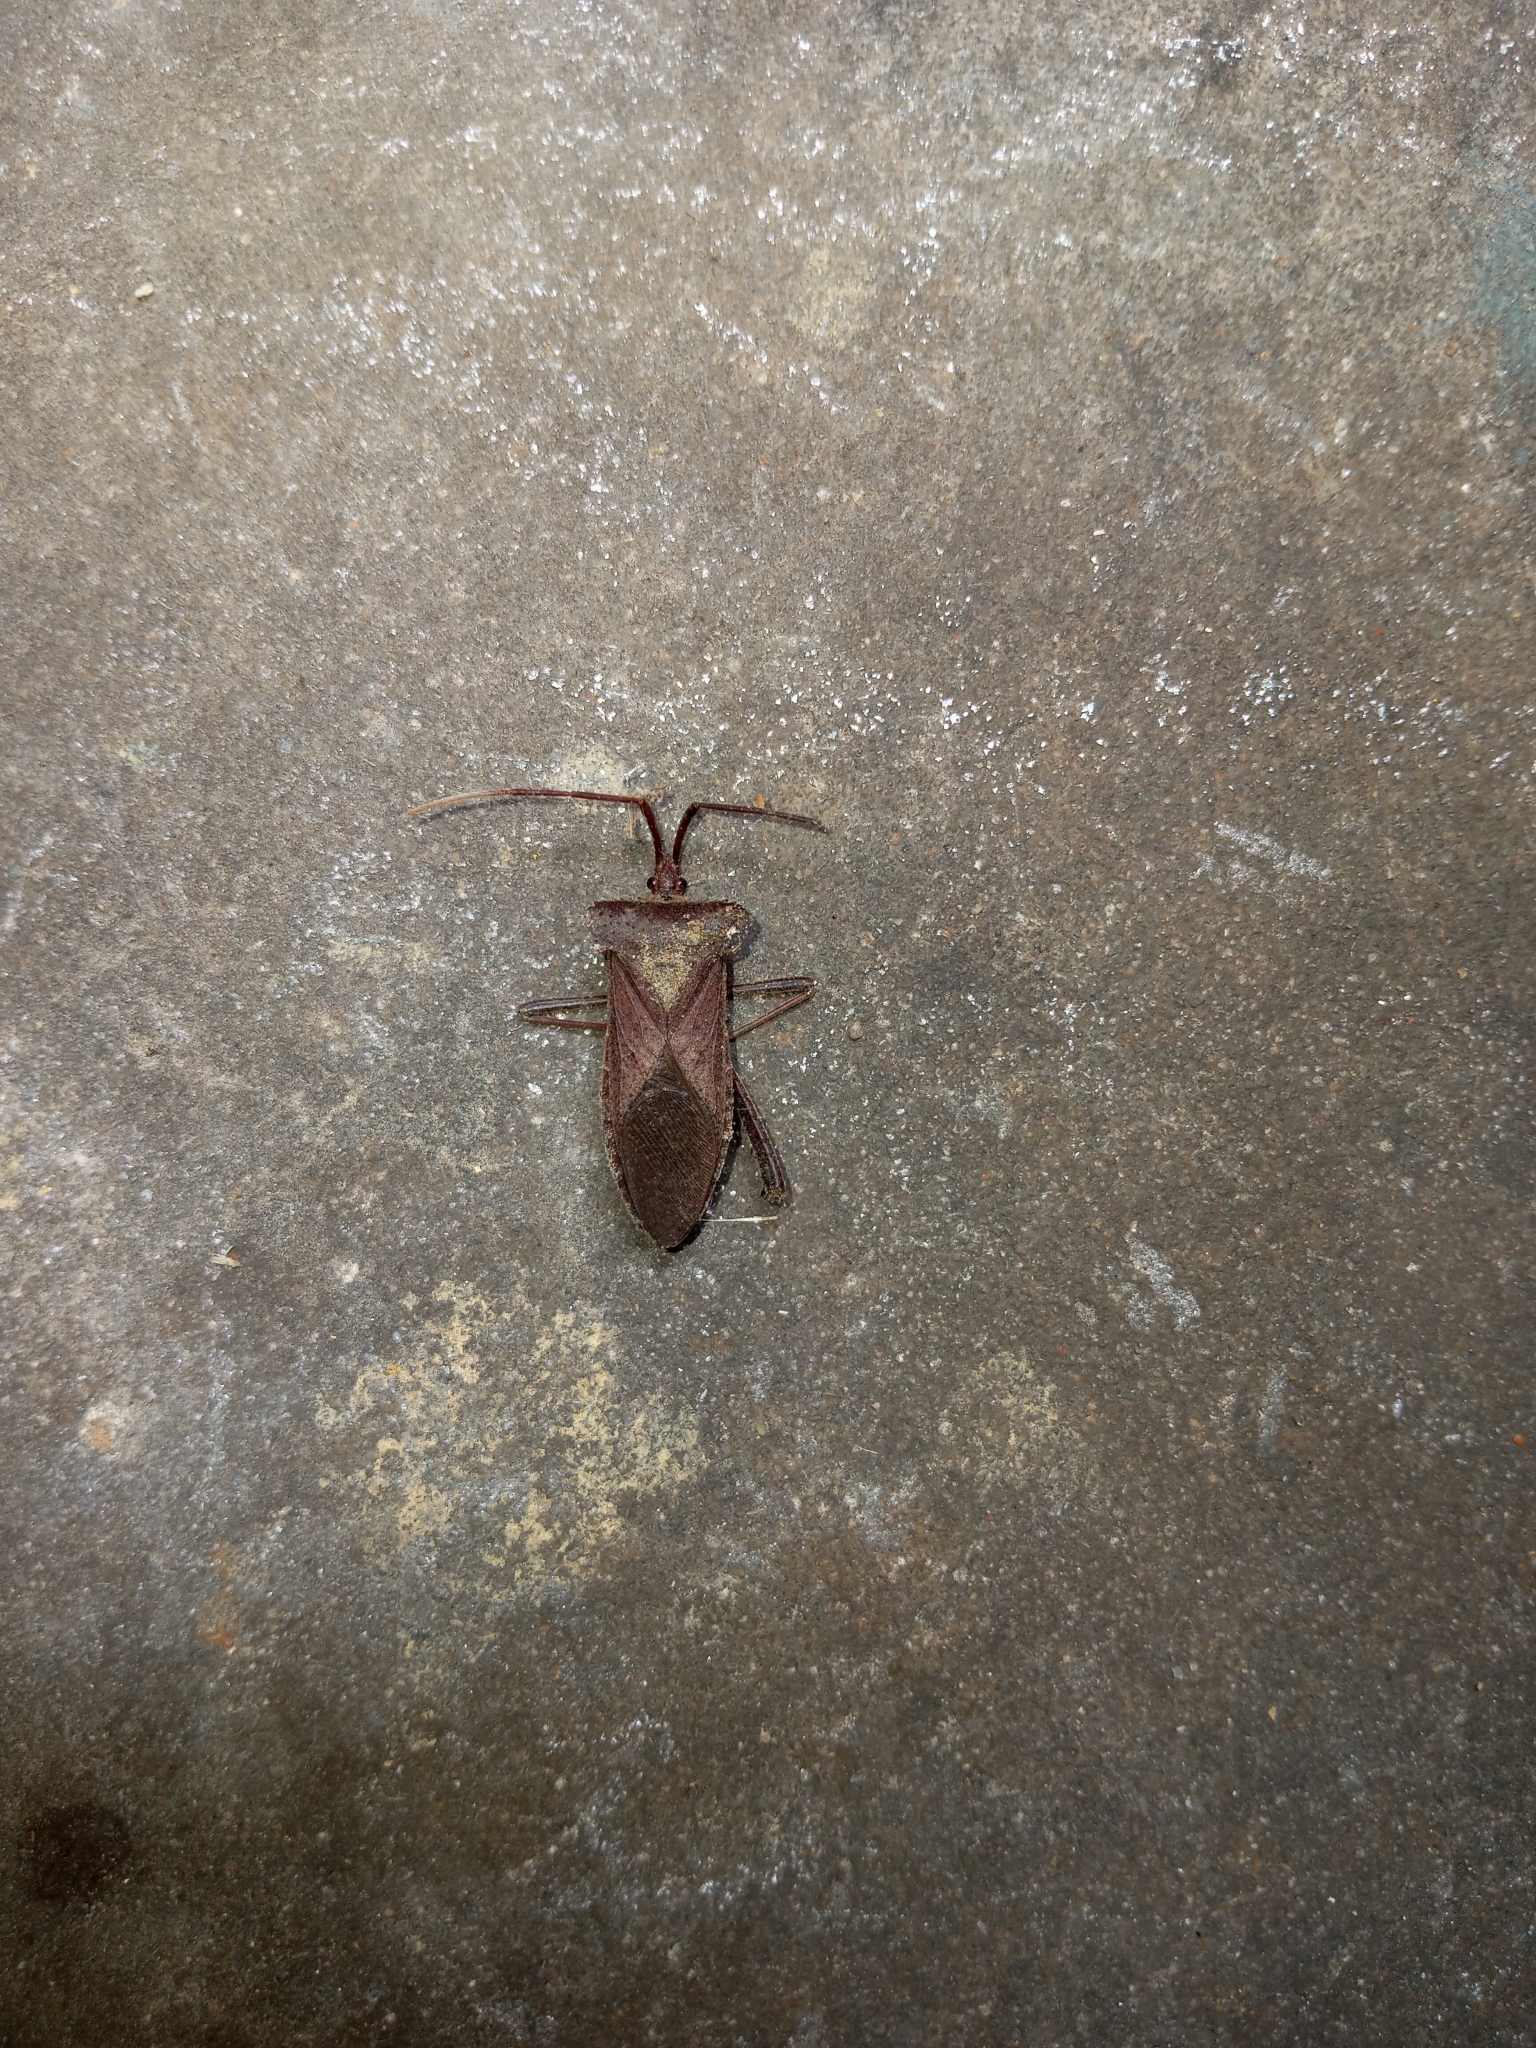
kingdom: Animalia
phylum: Arthropoda
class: Insecta
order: Hemiptera
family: Coreidae
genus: Acanthocephala
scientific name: Acanthocephala declivis
